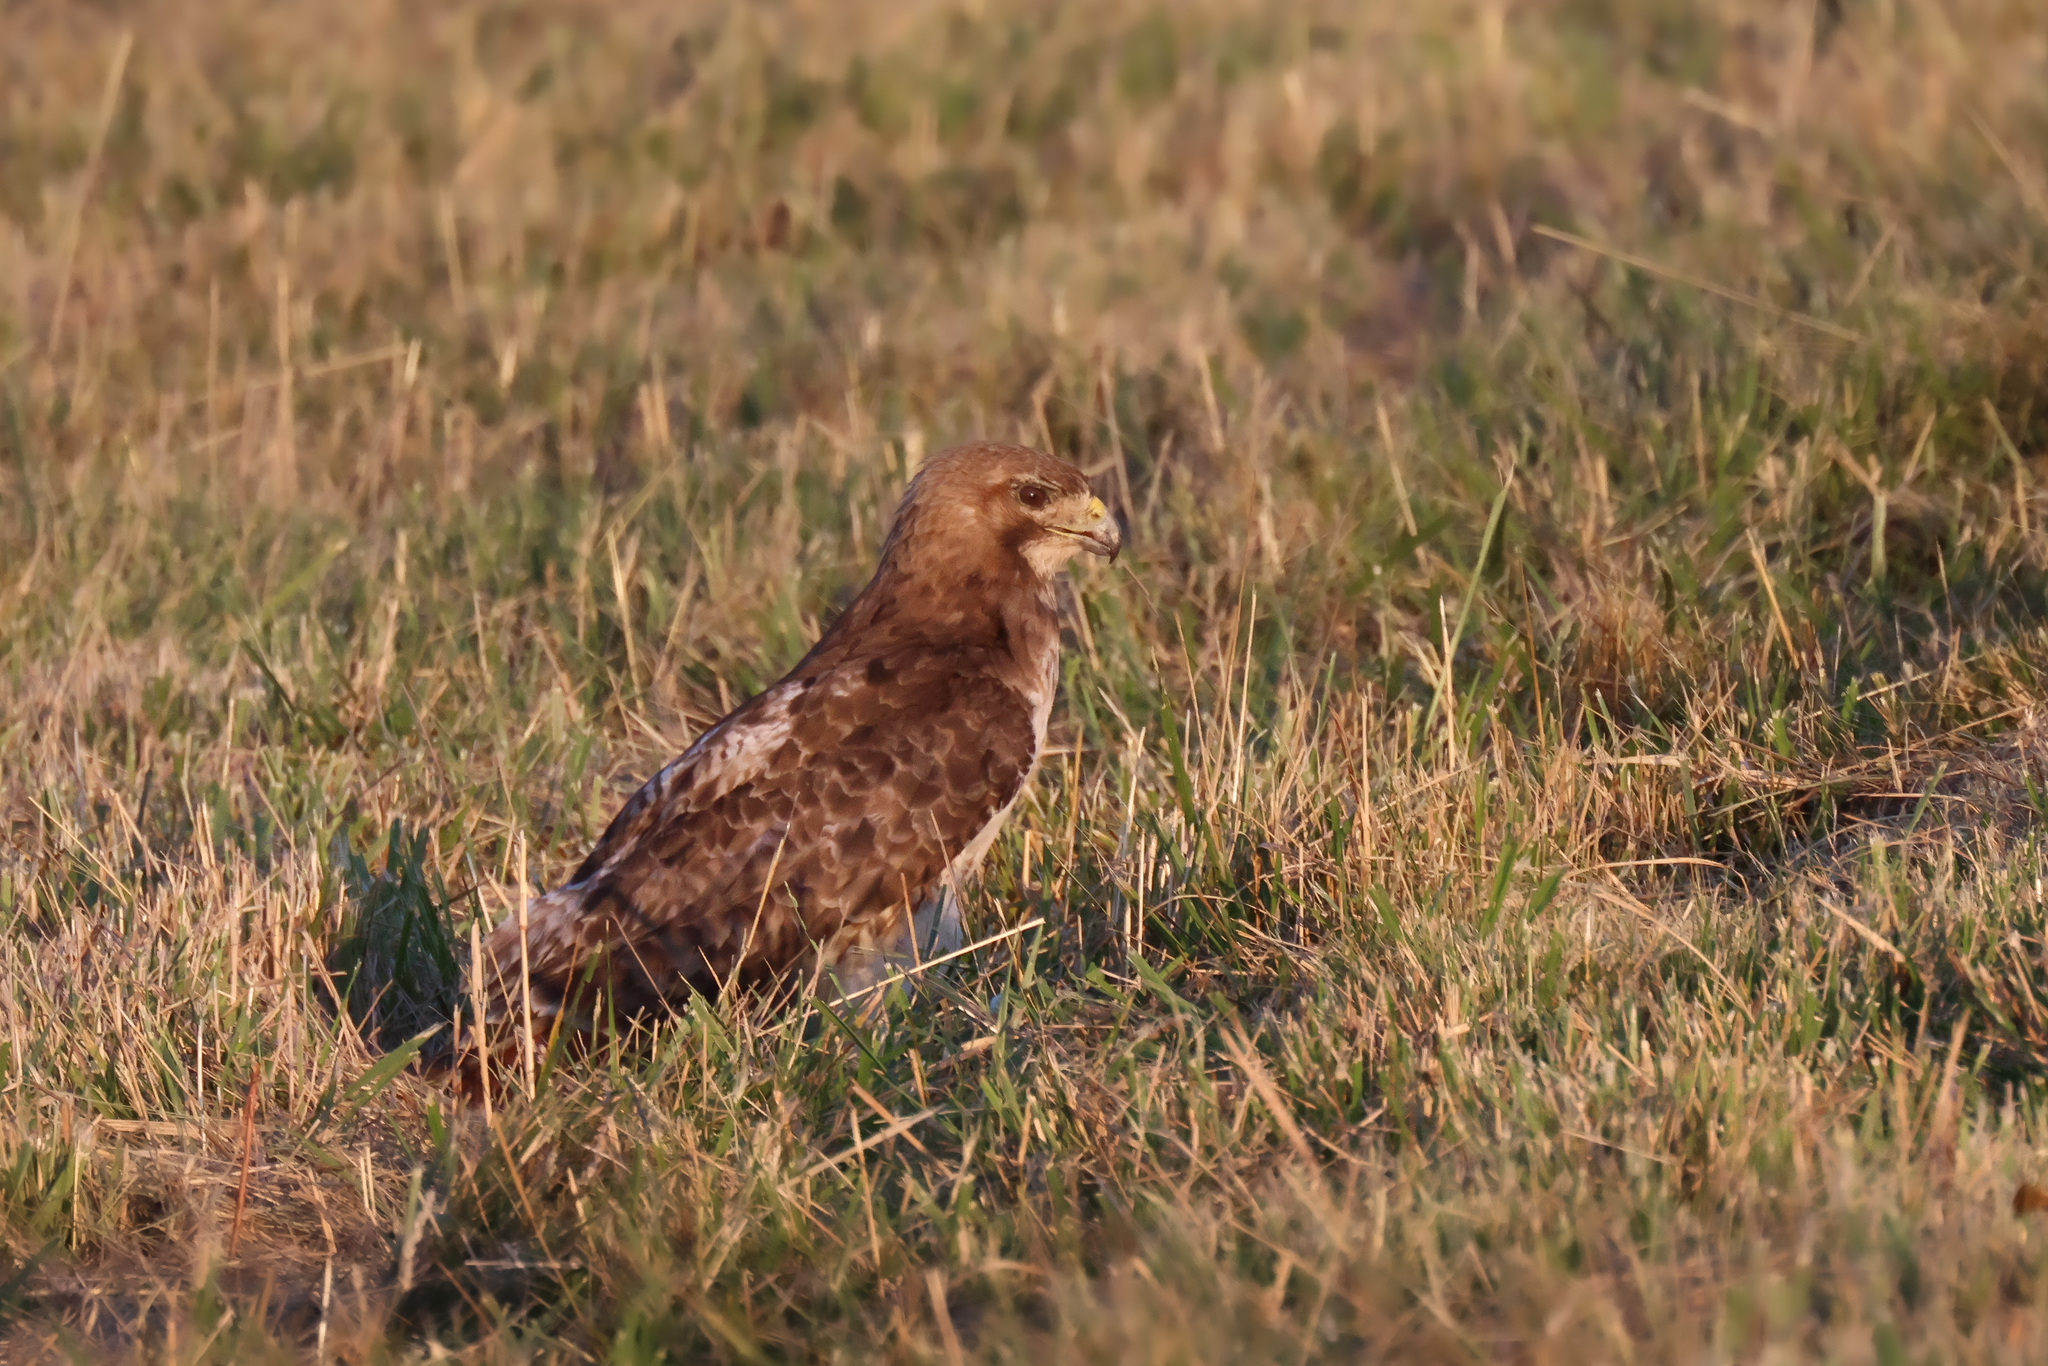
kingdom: Animalia
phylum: Chordata
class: Aves
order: Accipitriformes
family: Accipitridae
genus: Buteo
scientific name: Buteo jamaicensis
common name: Red-tailed hawk
